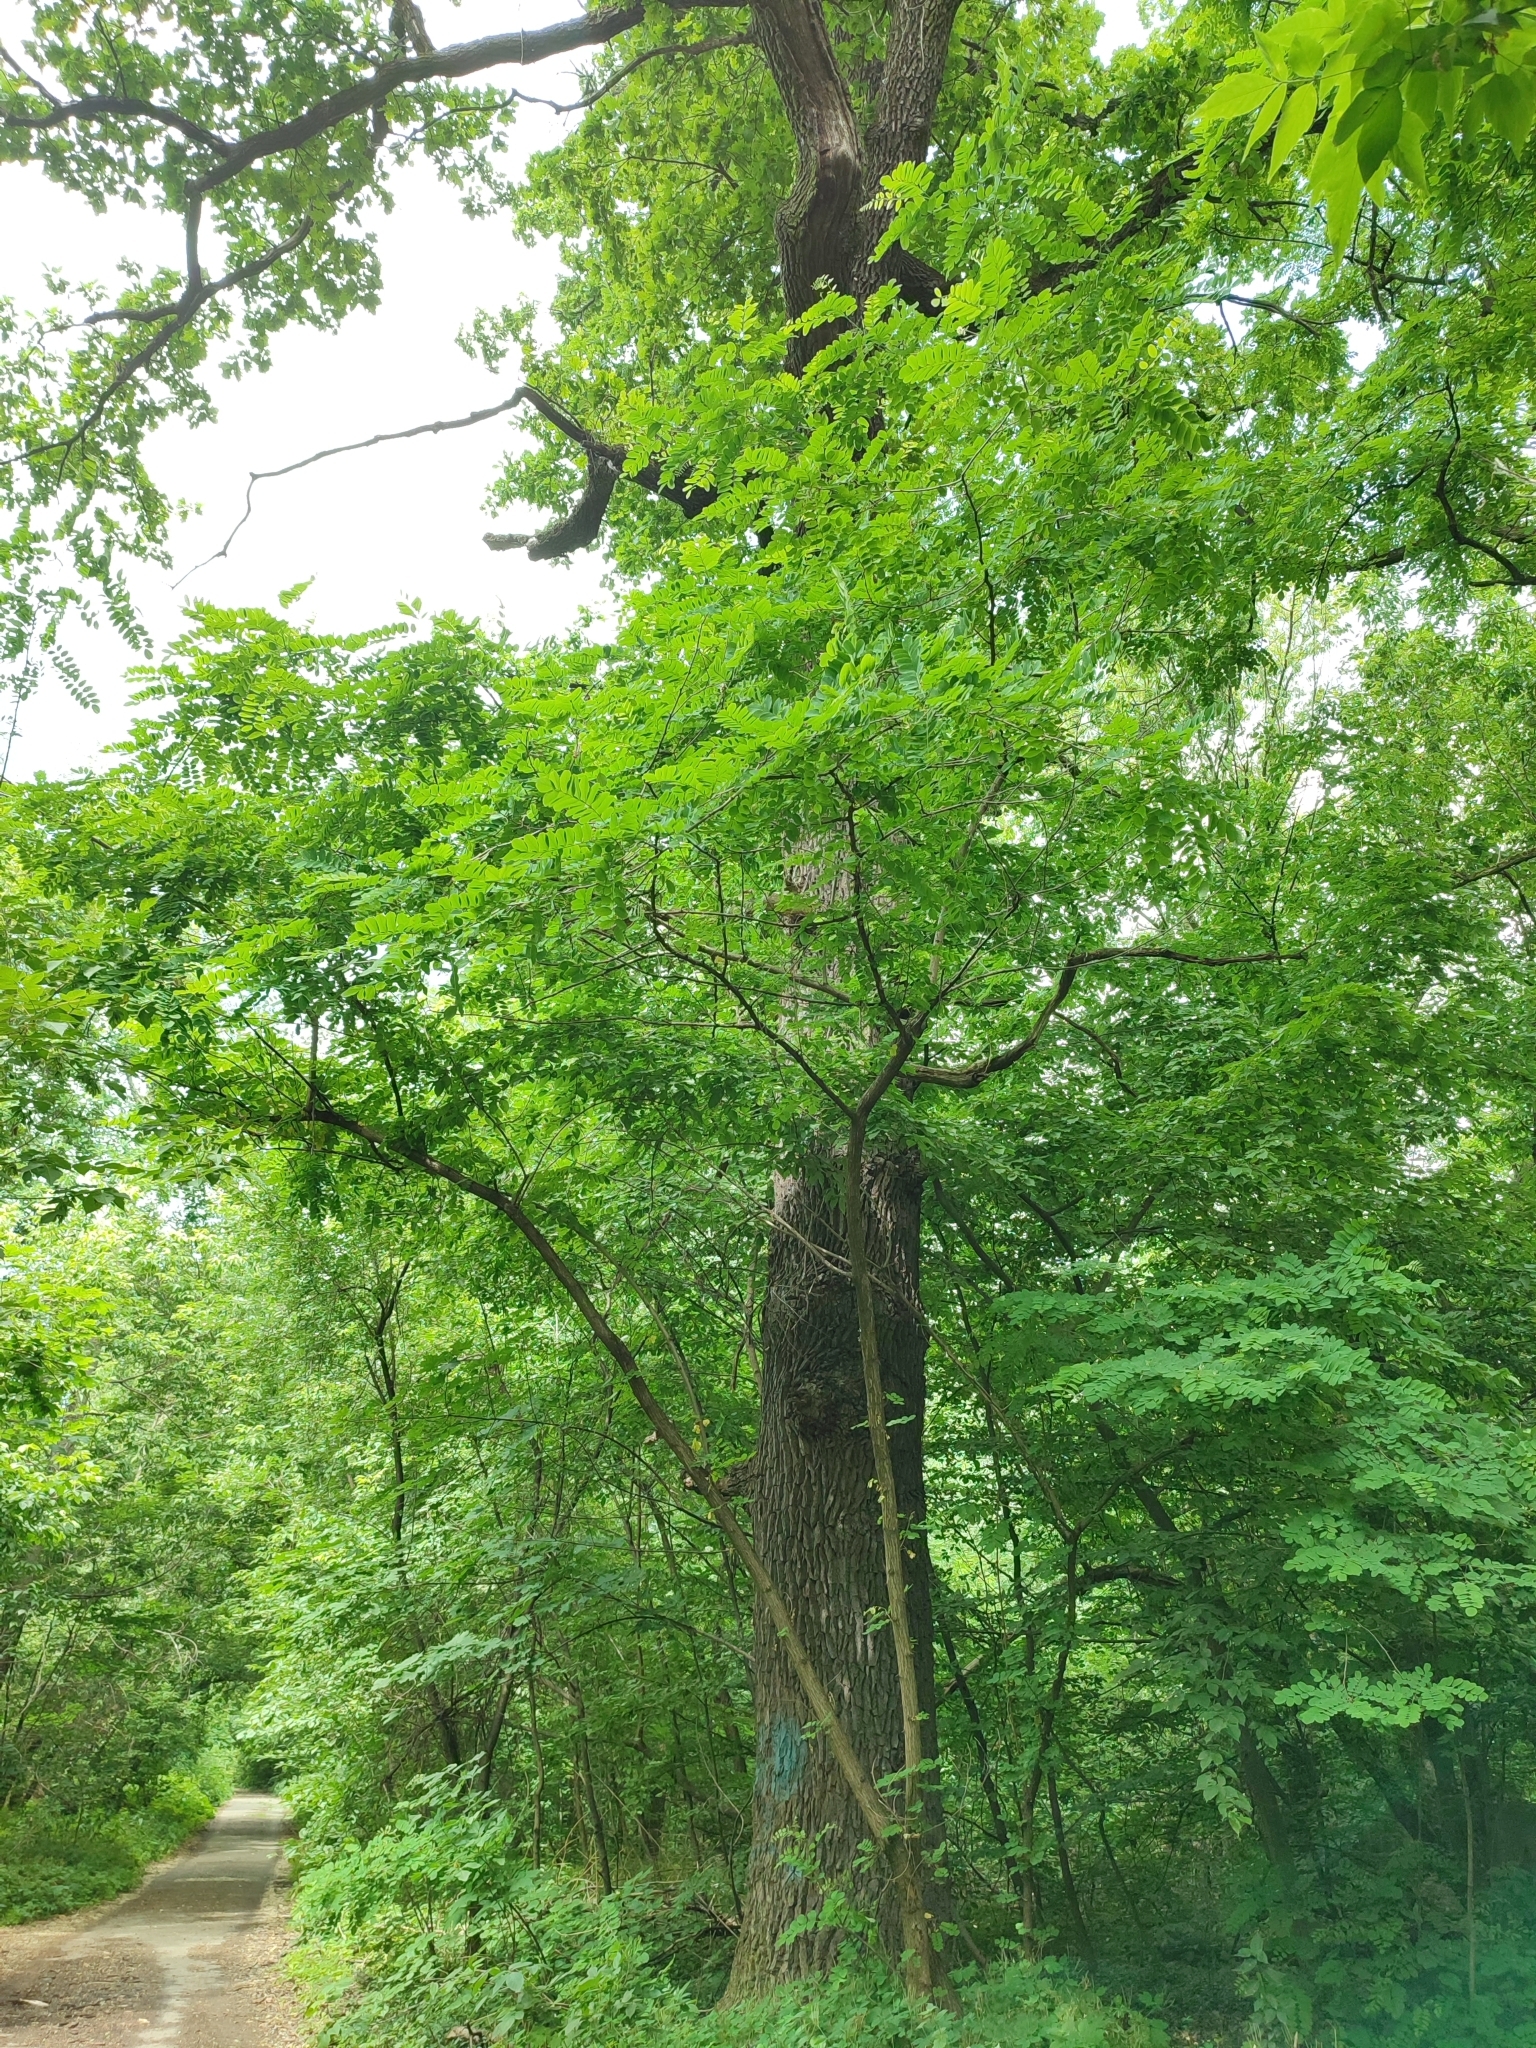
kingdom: Plantae
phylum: Tracheophyta
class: Magnoliopsida
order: Fagales
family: Fagaceae
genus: Quercus
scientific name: Quercus robur
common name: Pedunculate oak
